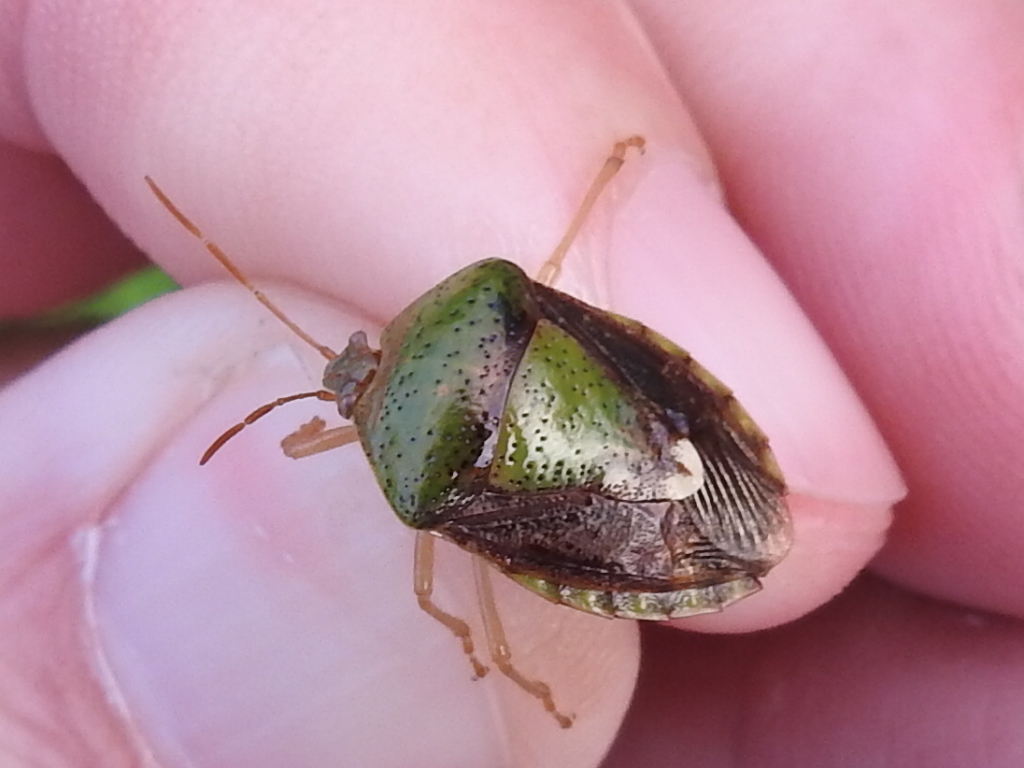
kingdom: Animalia
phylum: Arthropoda
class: Insecta
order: Hemiptera
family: Pentatomidae
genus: Edessa
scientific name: Edessa bifida
